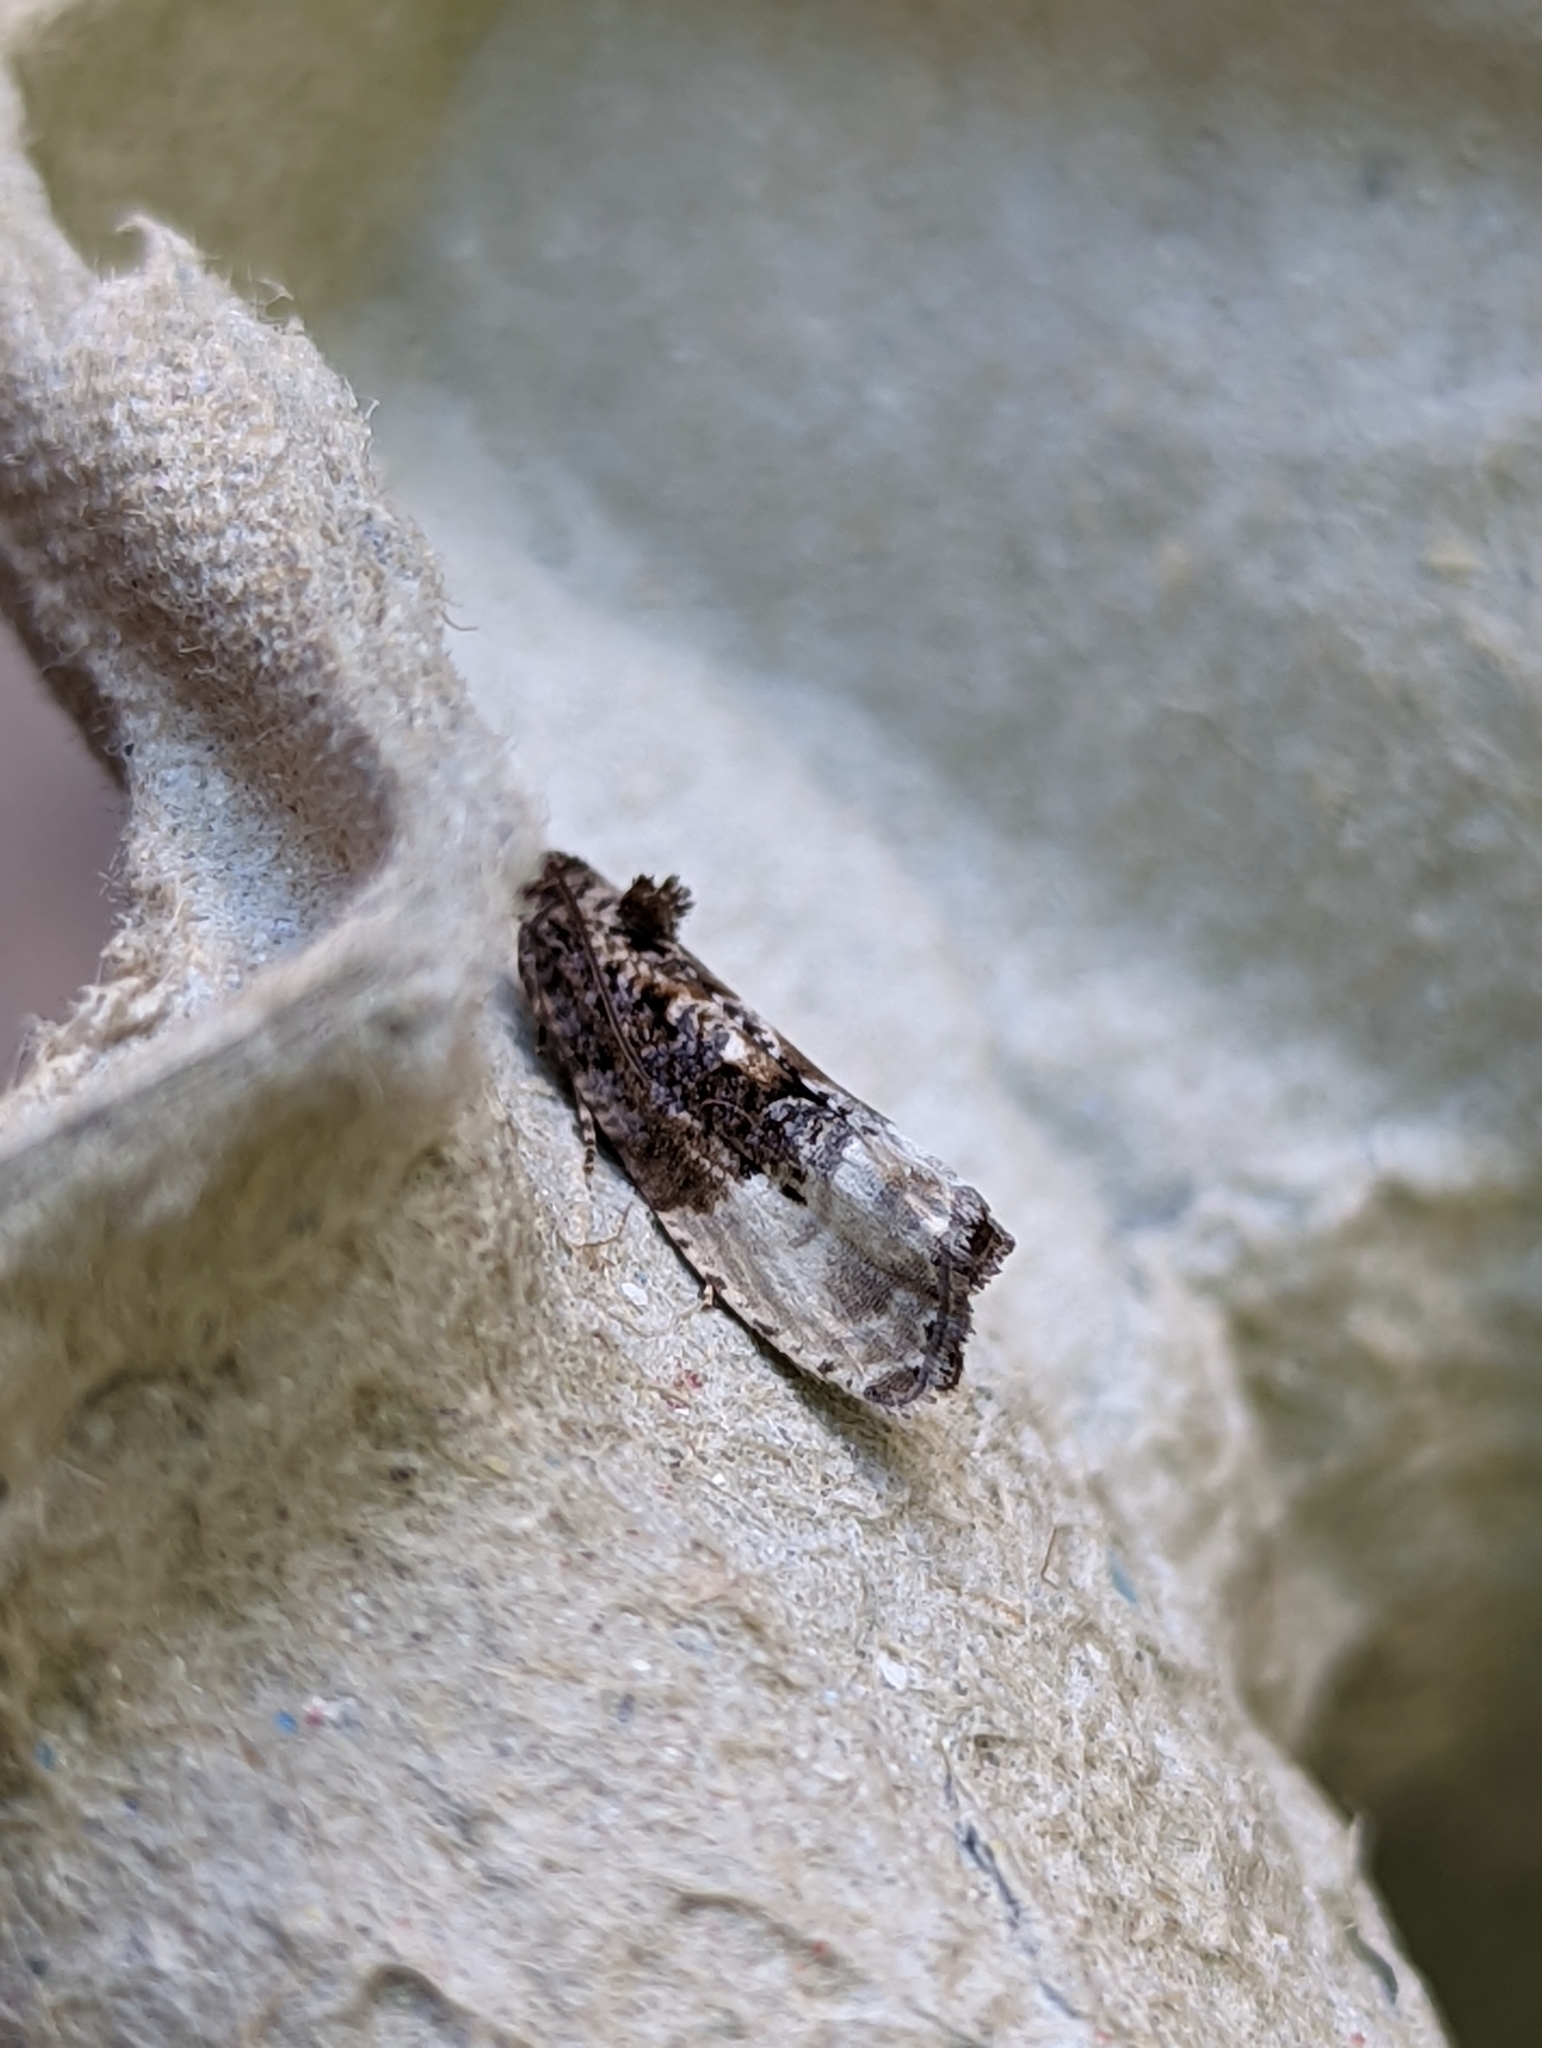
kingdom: Animalia
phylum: Arthropoda
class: Insecta
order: Lepidoptera
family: Tortricidae
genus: Hedya
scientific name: Hedya nubiferana
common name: Marbled orchard tortrix
